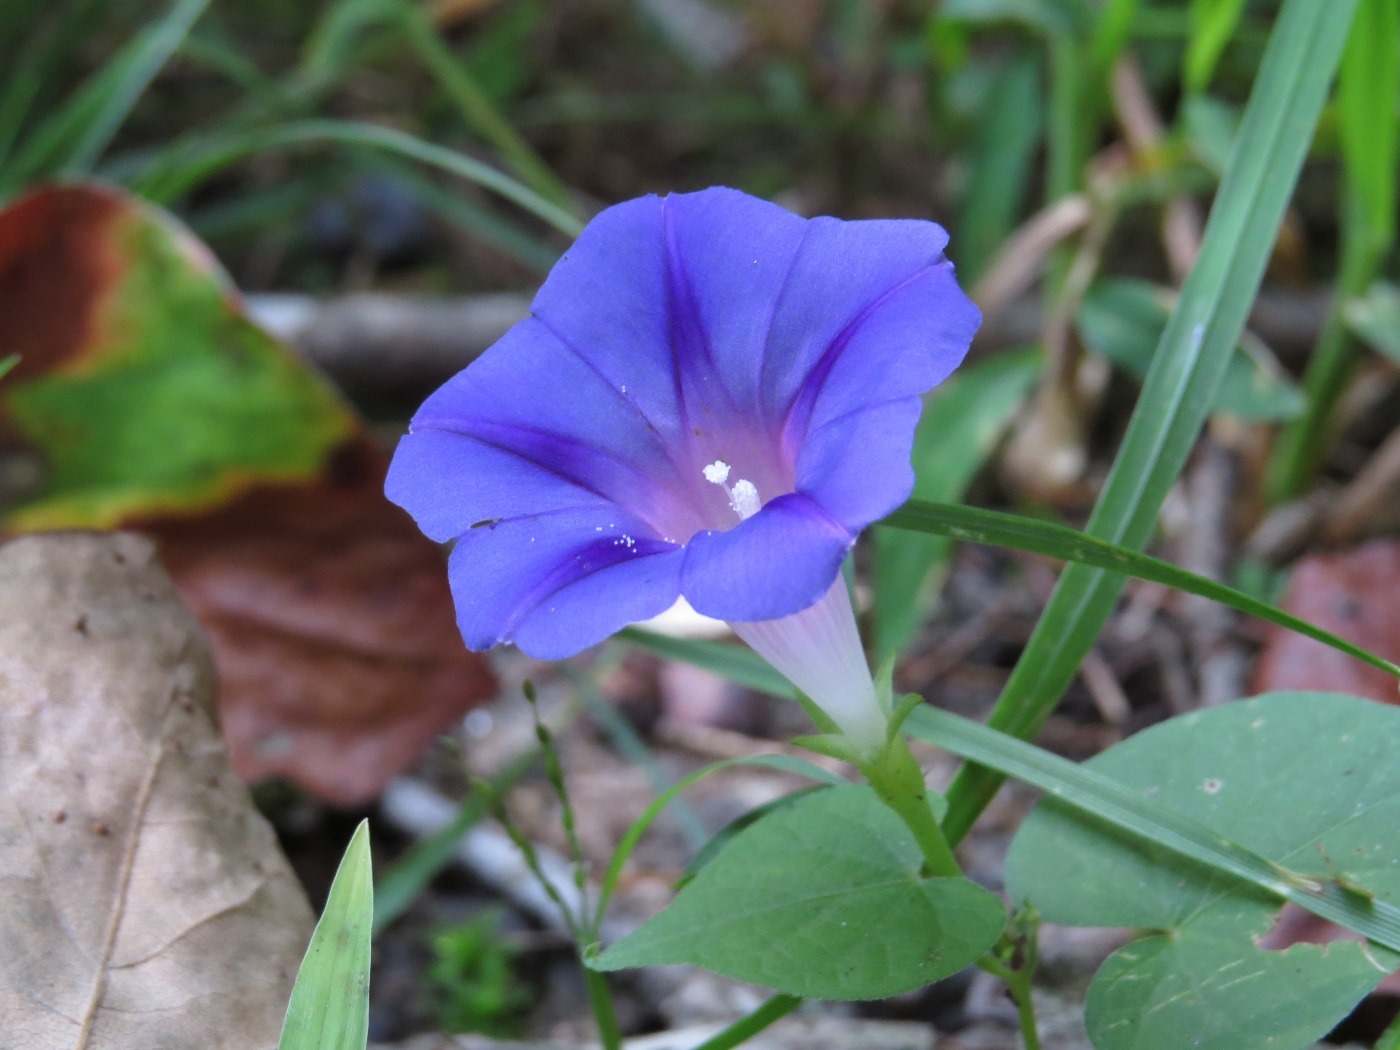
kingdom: Plantae
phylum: Tracheophyta
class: Magnoliopsida
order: Solanales
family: Convolvulaceae
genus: Ipomoea
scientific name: Ipomoea purpurea
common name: Common morning-glory
